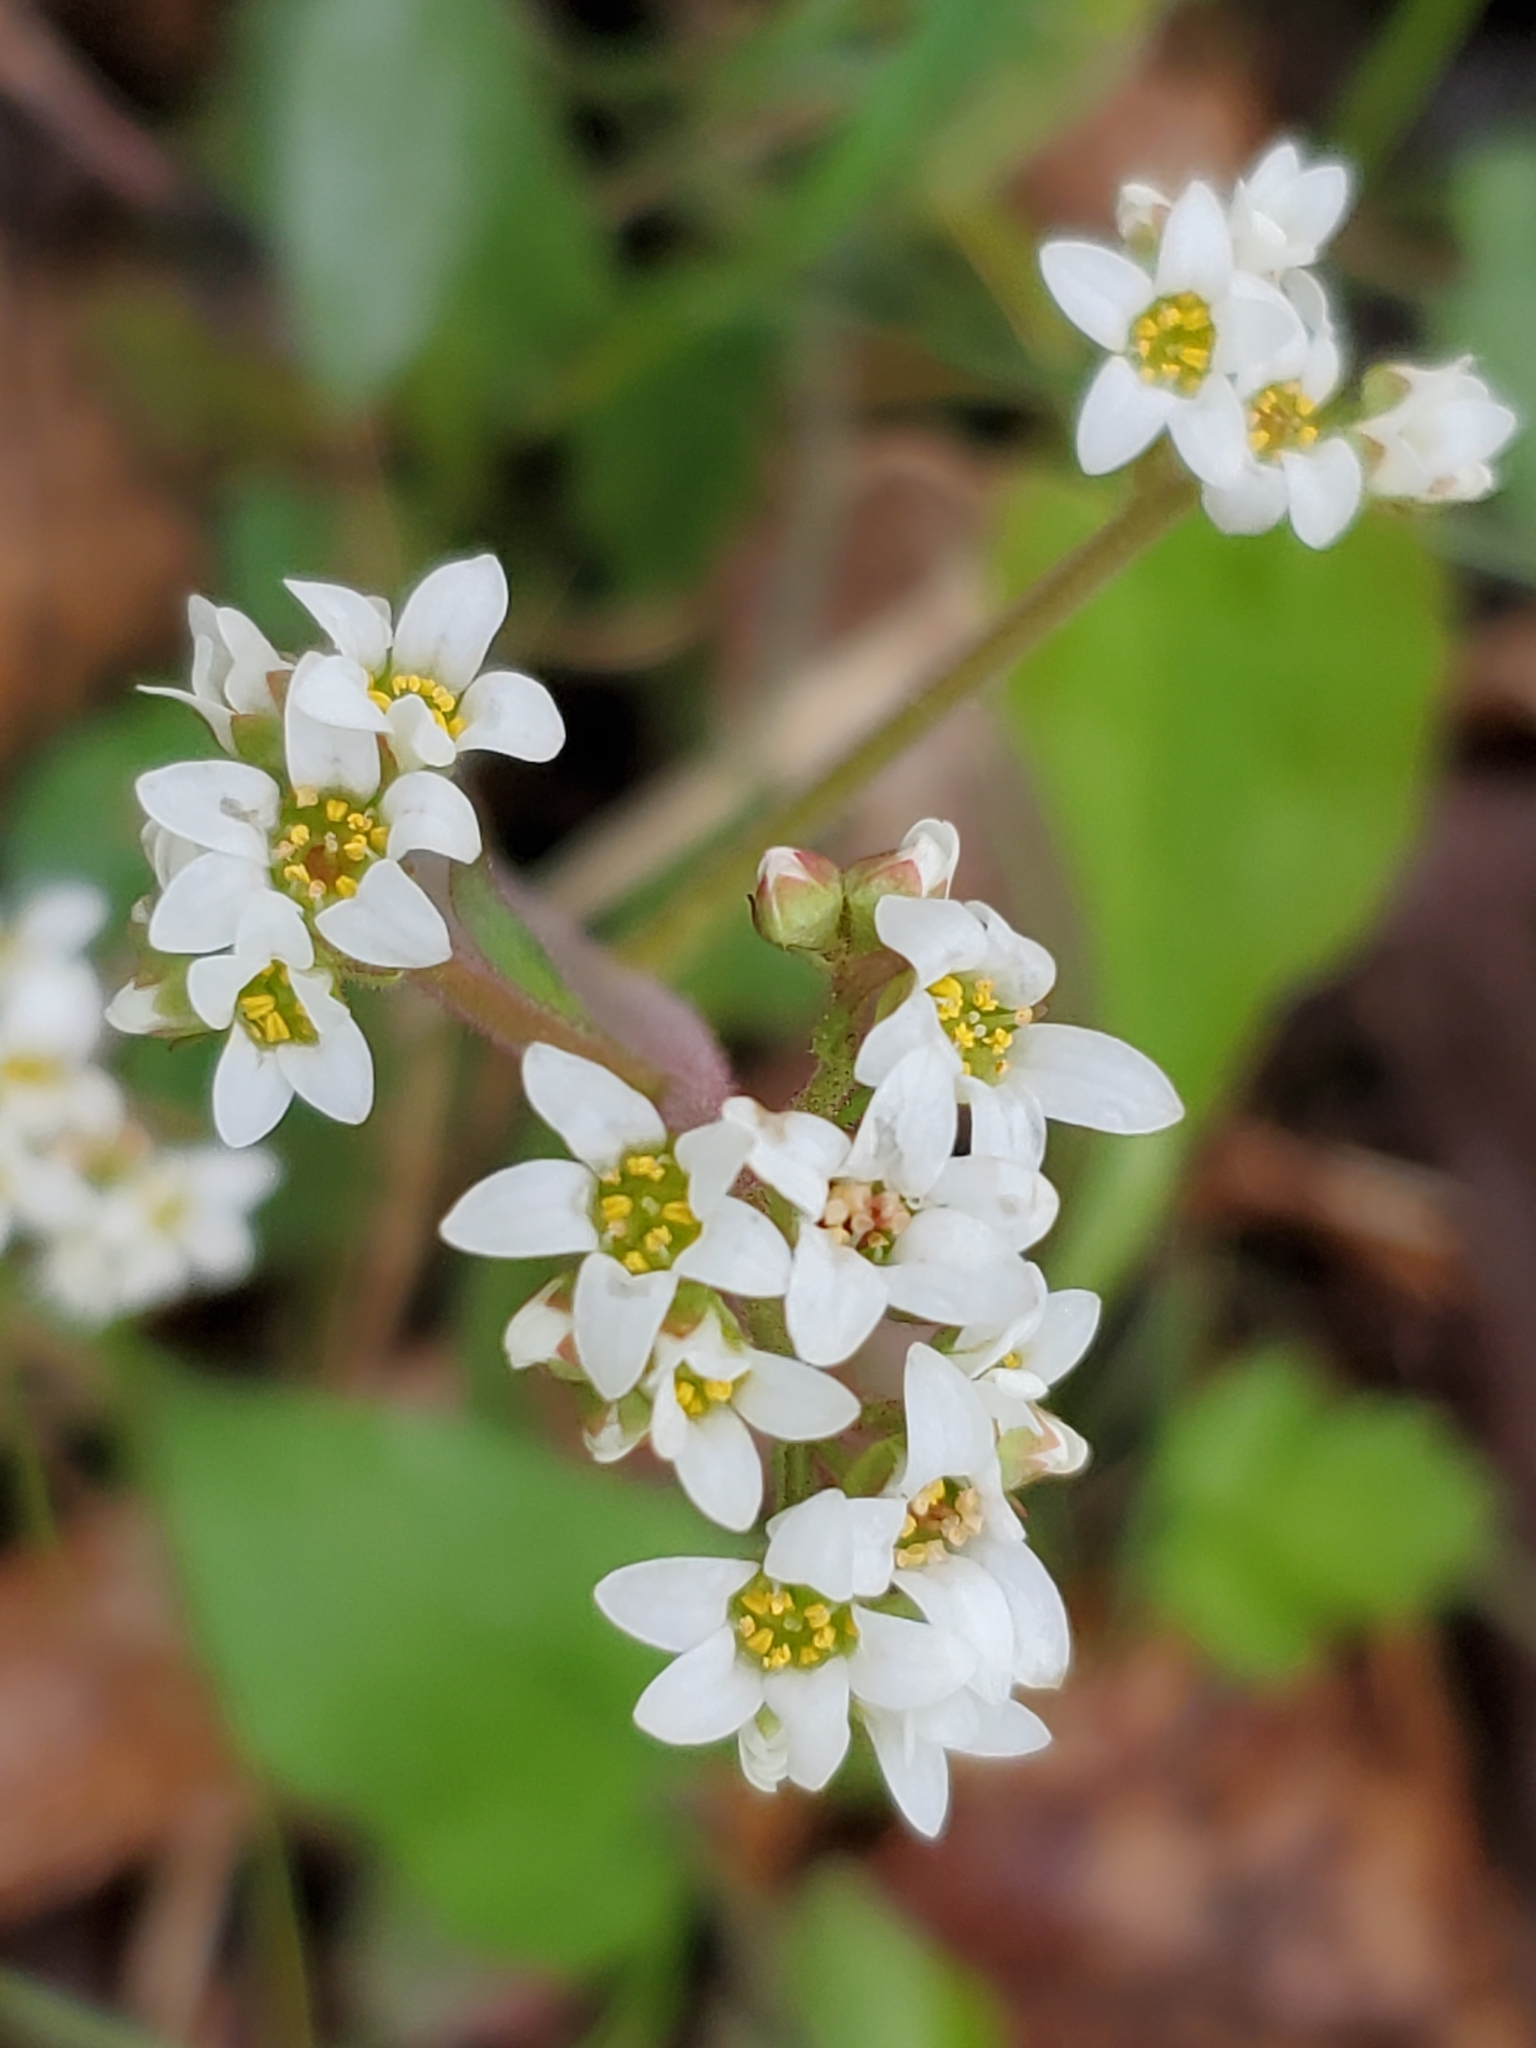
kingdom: Plantae
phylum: Tracheophyta
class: Magnoliopsida
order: Saxifragales
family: Saxifragaceae
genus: Micranthes
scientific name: Micranthes virginiensis
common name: Early saxifrage
